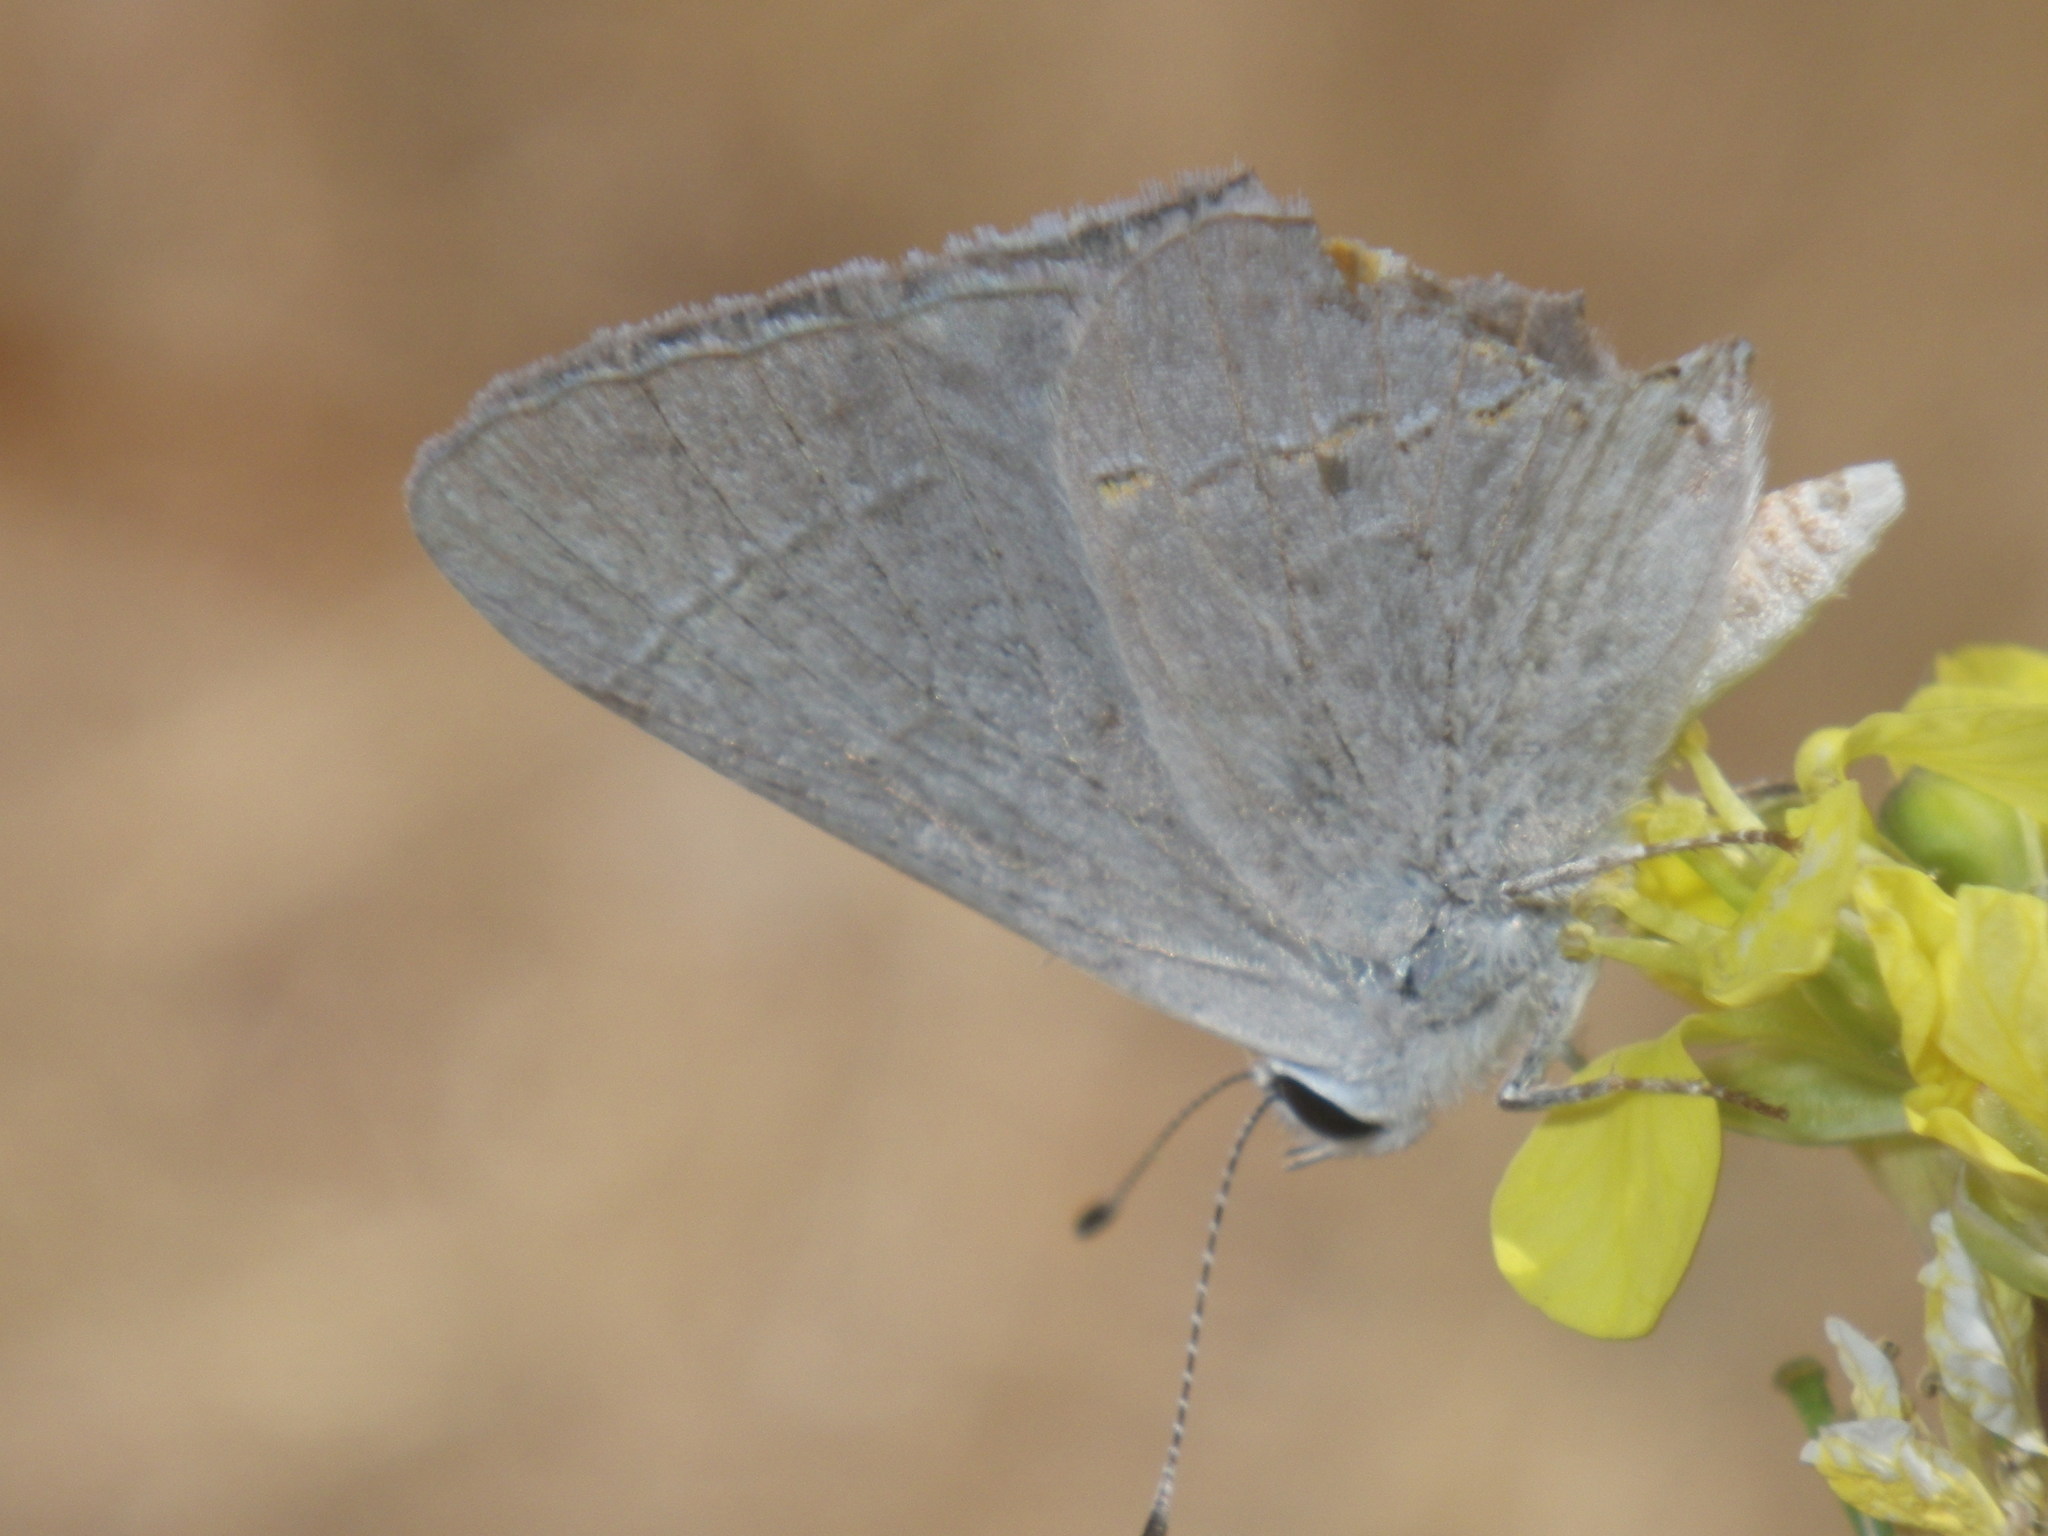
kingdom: Animalia
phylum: Arthropoda
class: Insecta
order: Lepidoptera
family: Lycaenidae
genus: Strymon
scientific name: Strymon melinus
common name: Gray hairstreak
